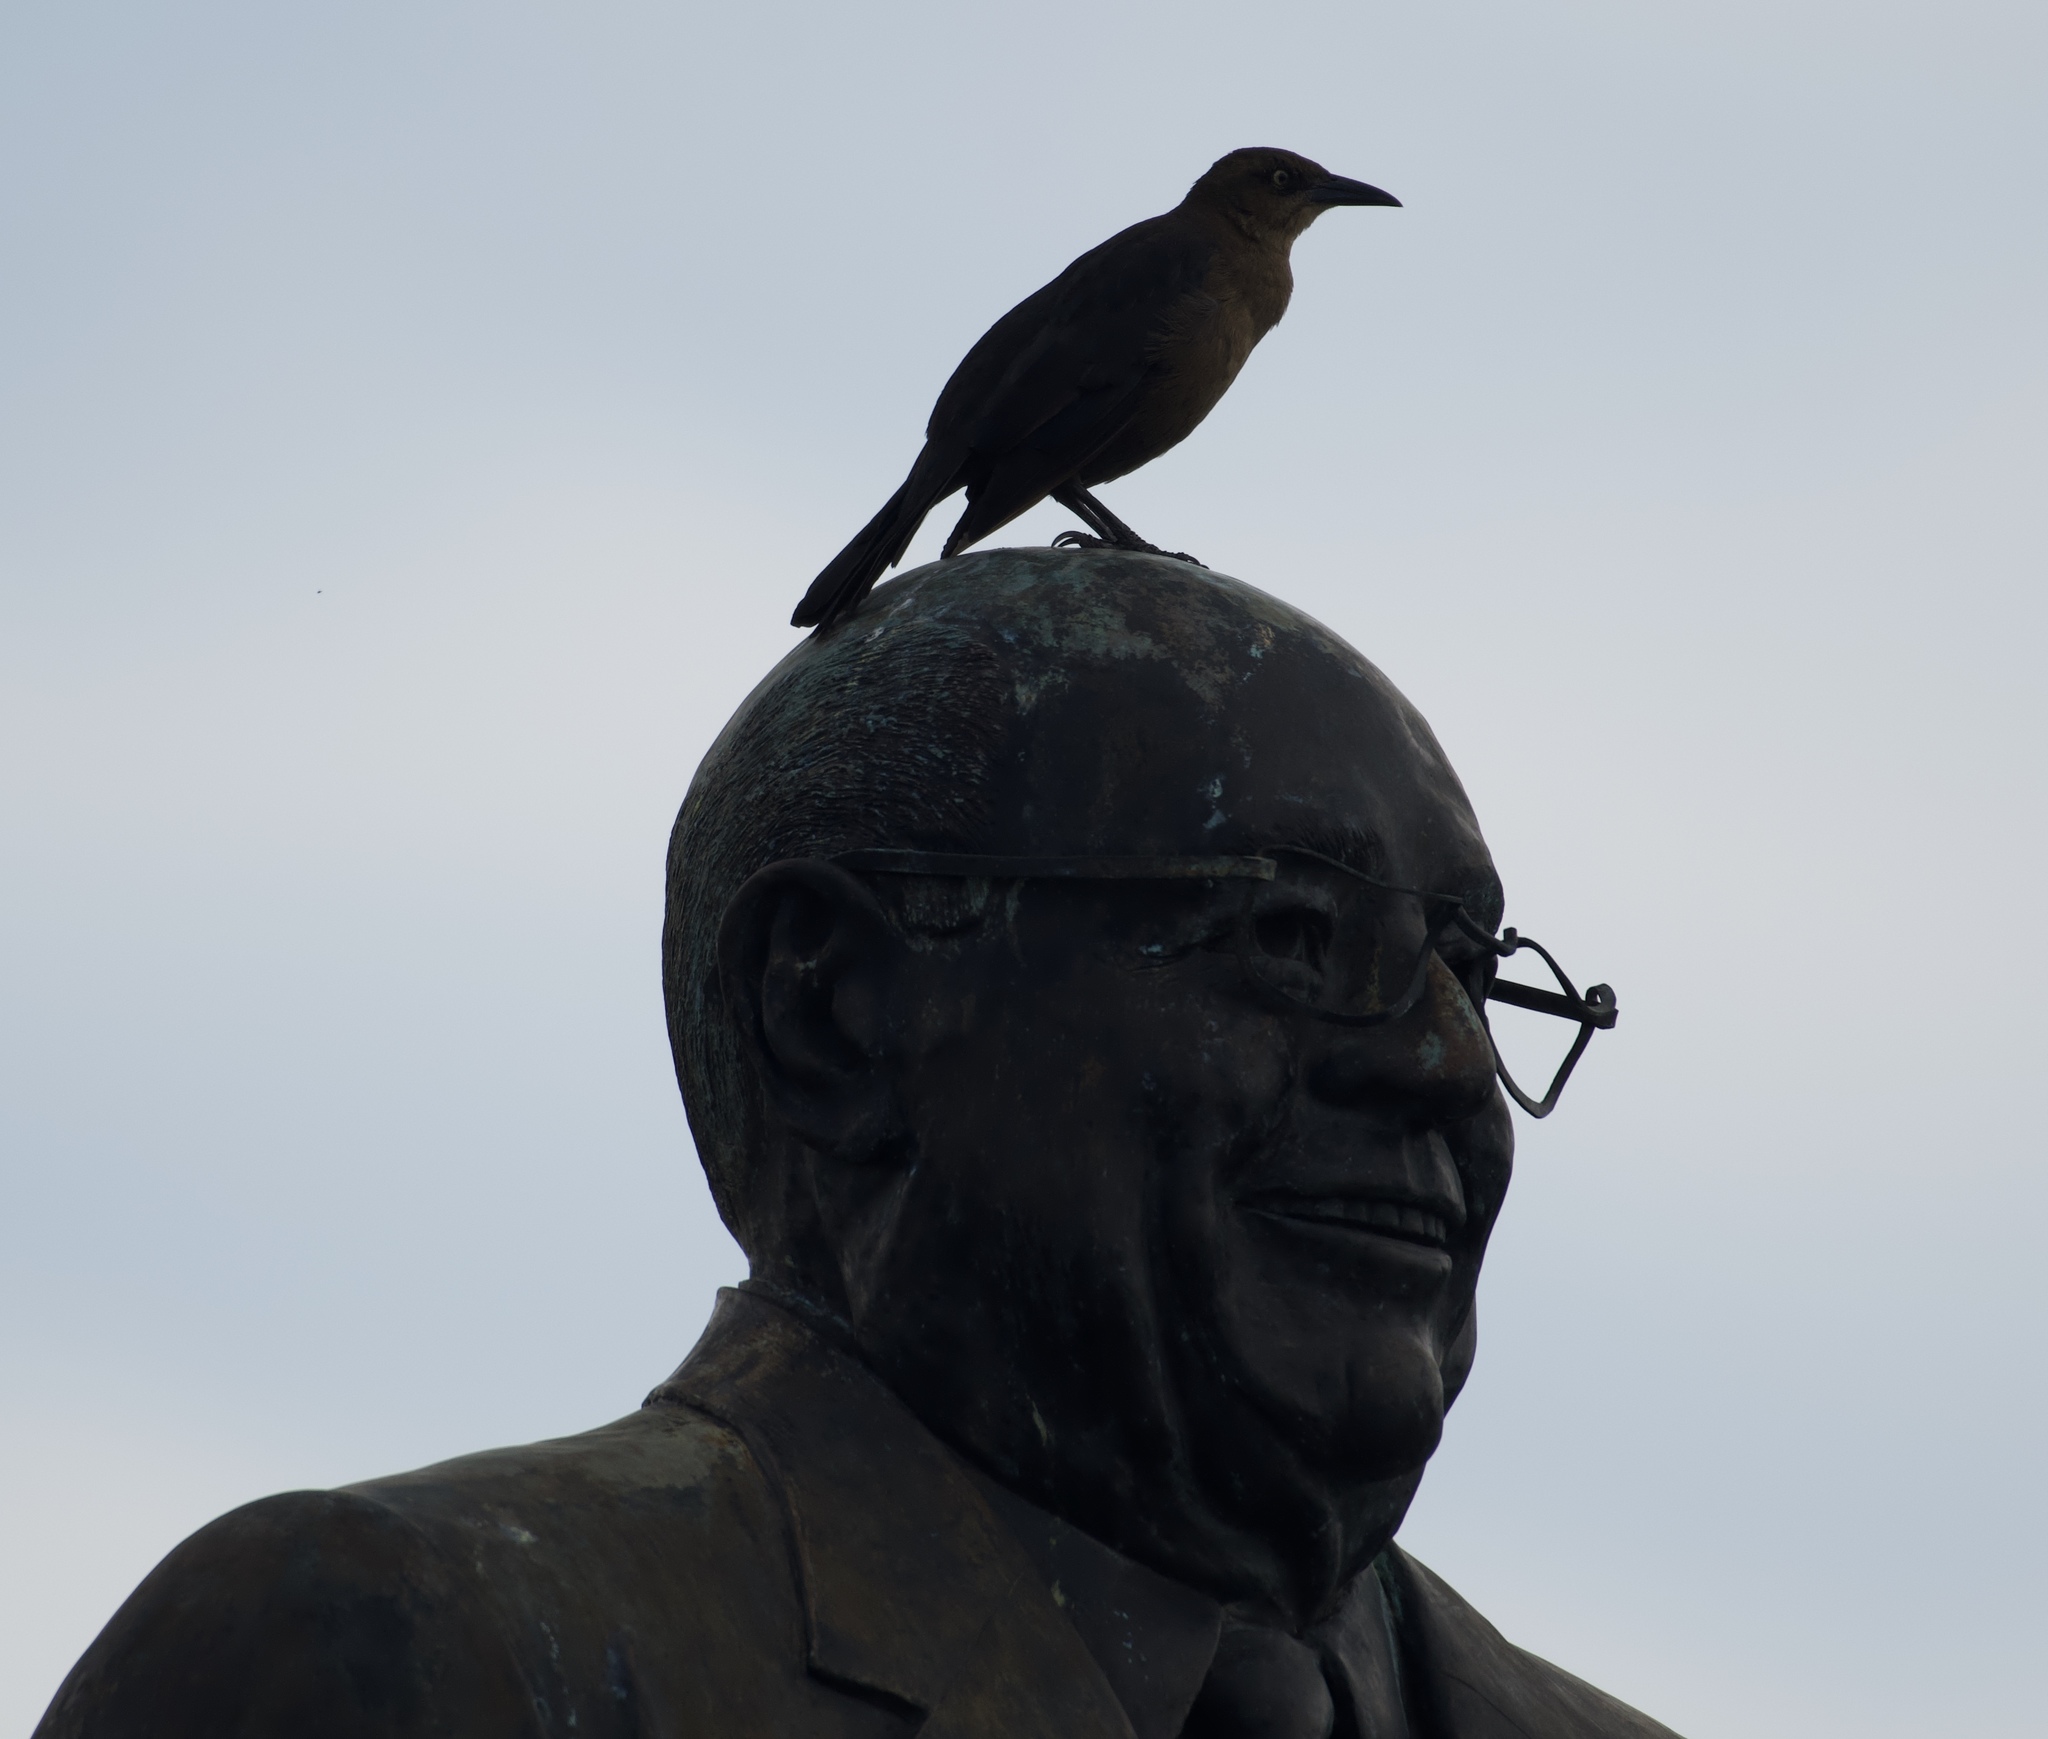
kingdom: Animalia
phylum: Chordata
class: Aves
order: Passeriformes
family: Icteridae
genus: Quiscalus
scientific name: Quiscalus mexicanus
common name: Great-tailed grackle
